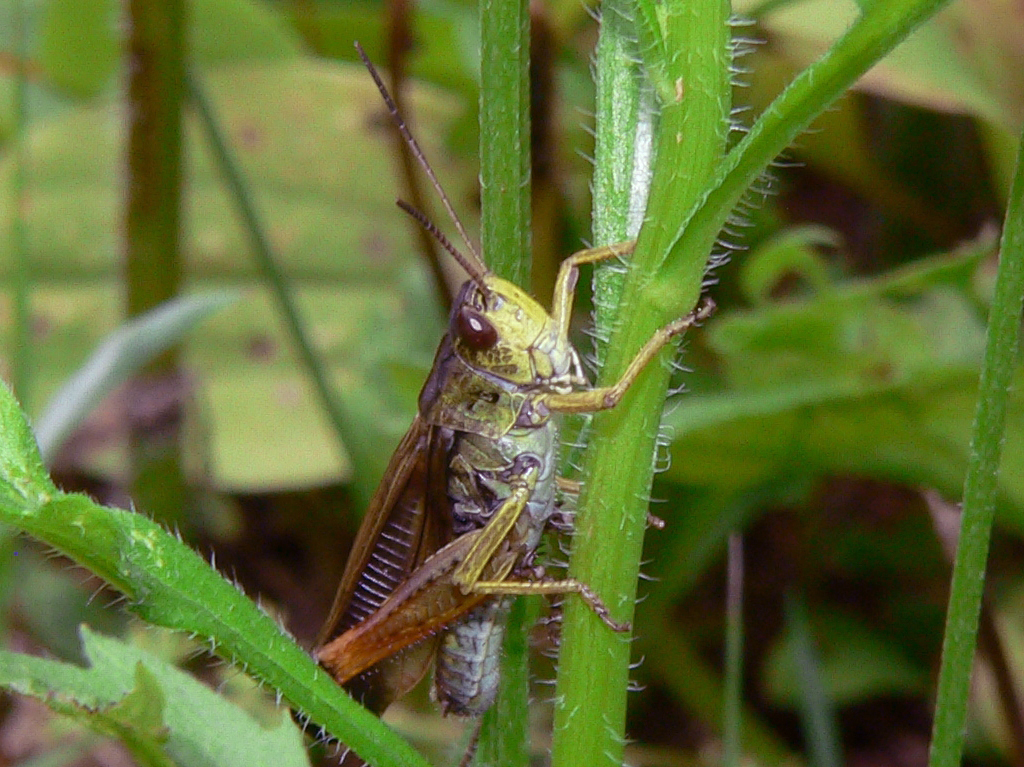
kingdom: Animalia
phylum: Arthropoda
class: Insecta
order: Orthoptera
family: Acrididae
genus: Stauroderus
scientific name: Stauroderus scalaris
